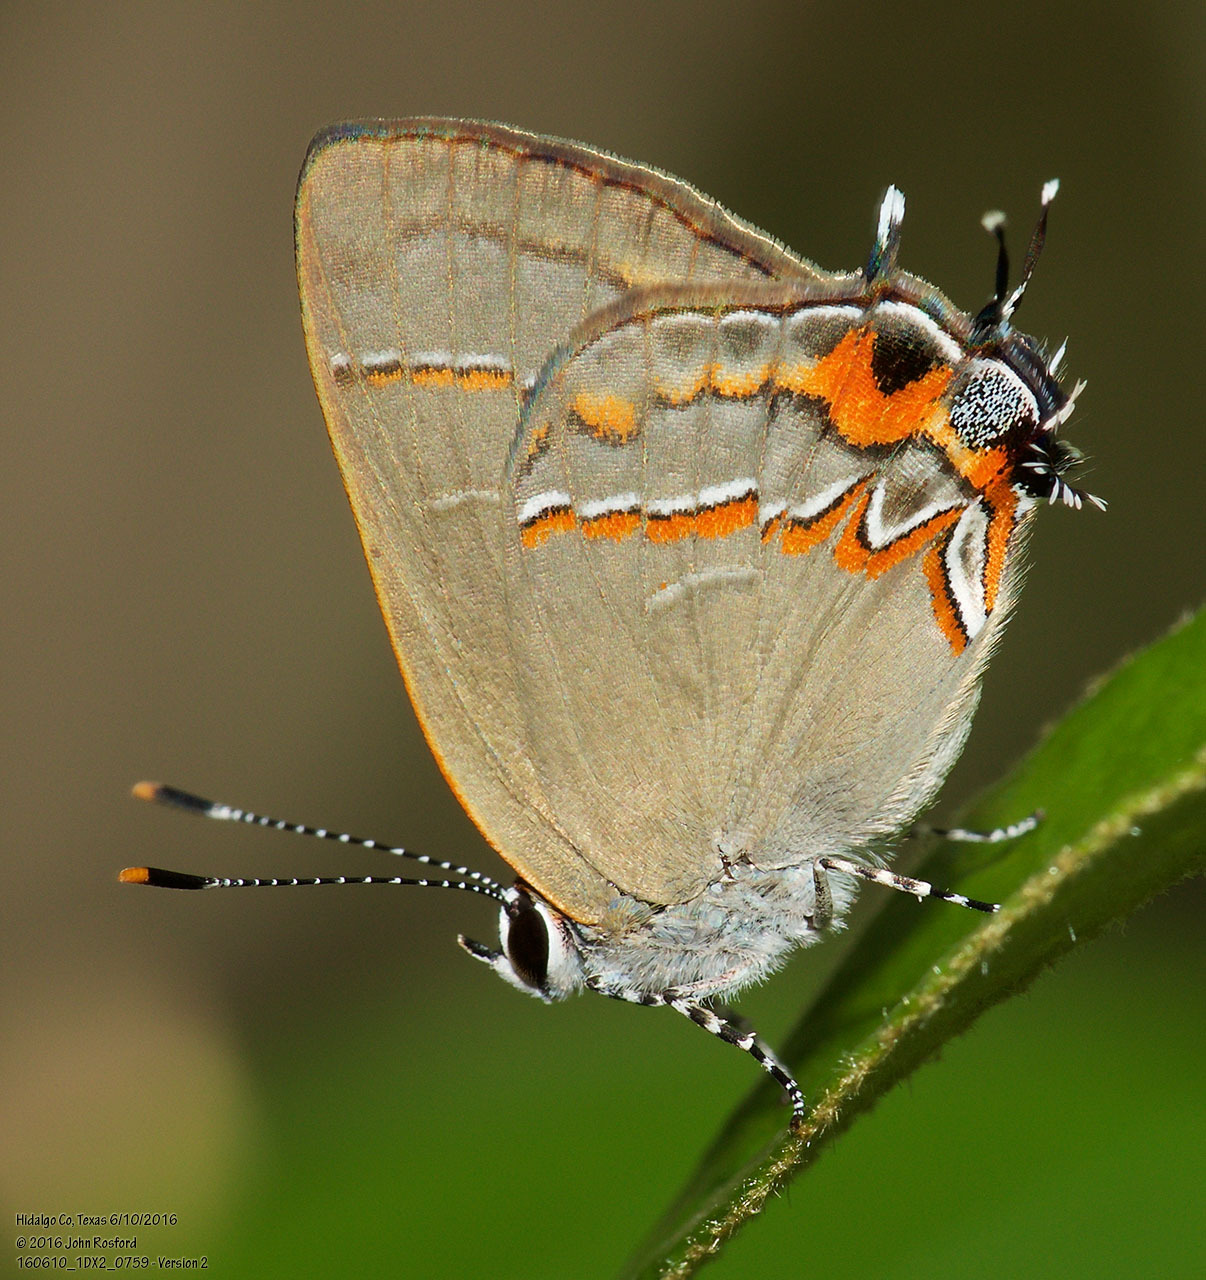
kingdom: Animalia
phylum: Arthropoda
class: Insecta
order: Lepidoptera
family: Lycaenidae
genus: Electrostrymon
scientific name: Electrostrymon
